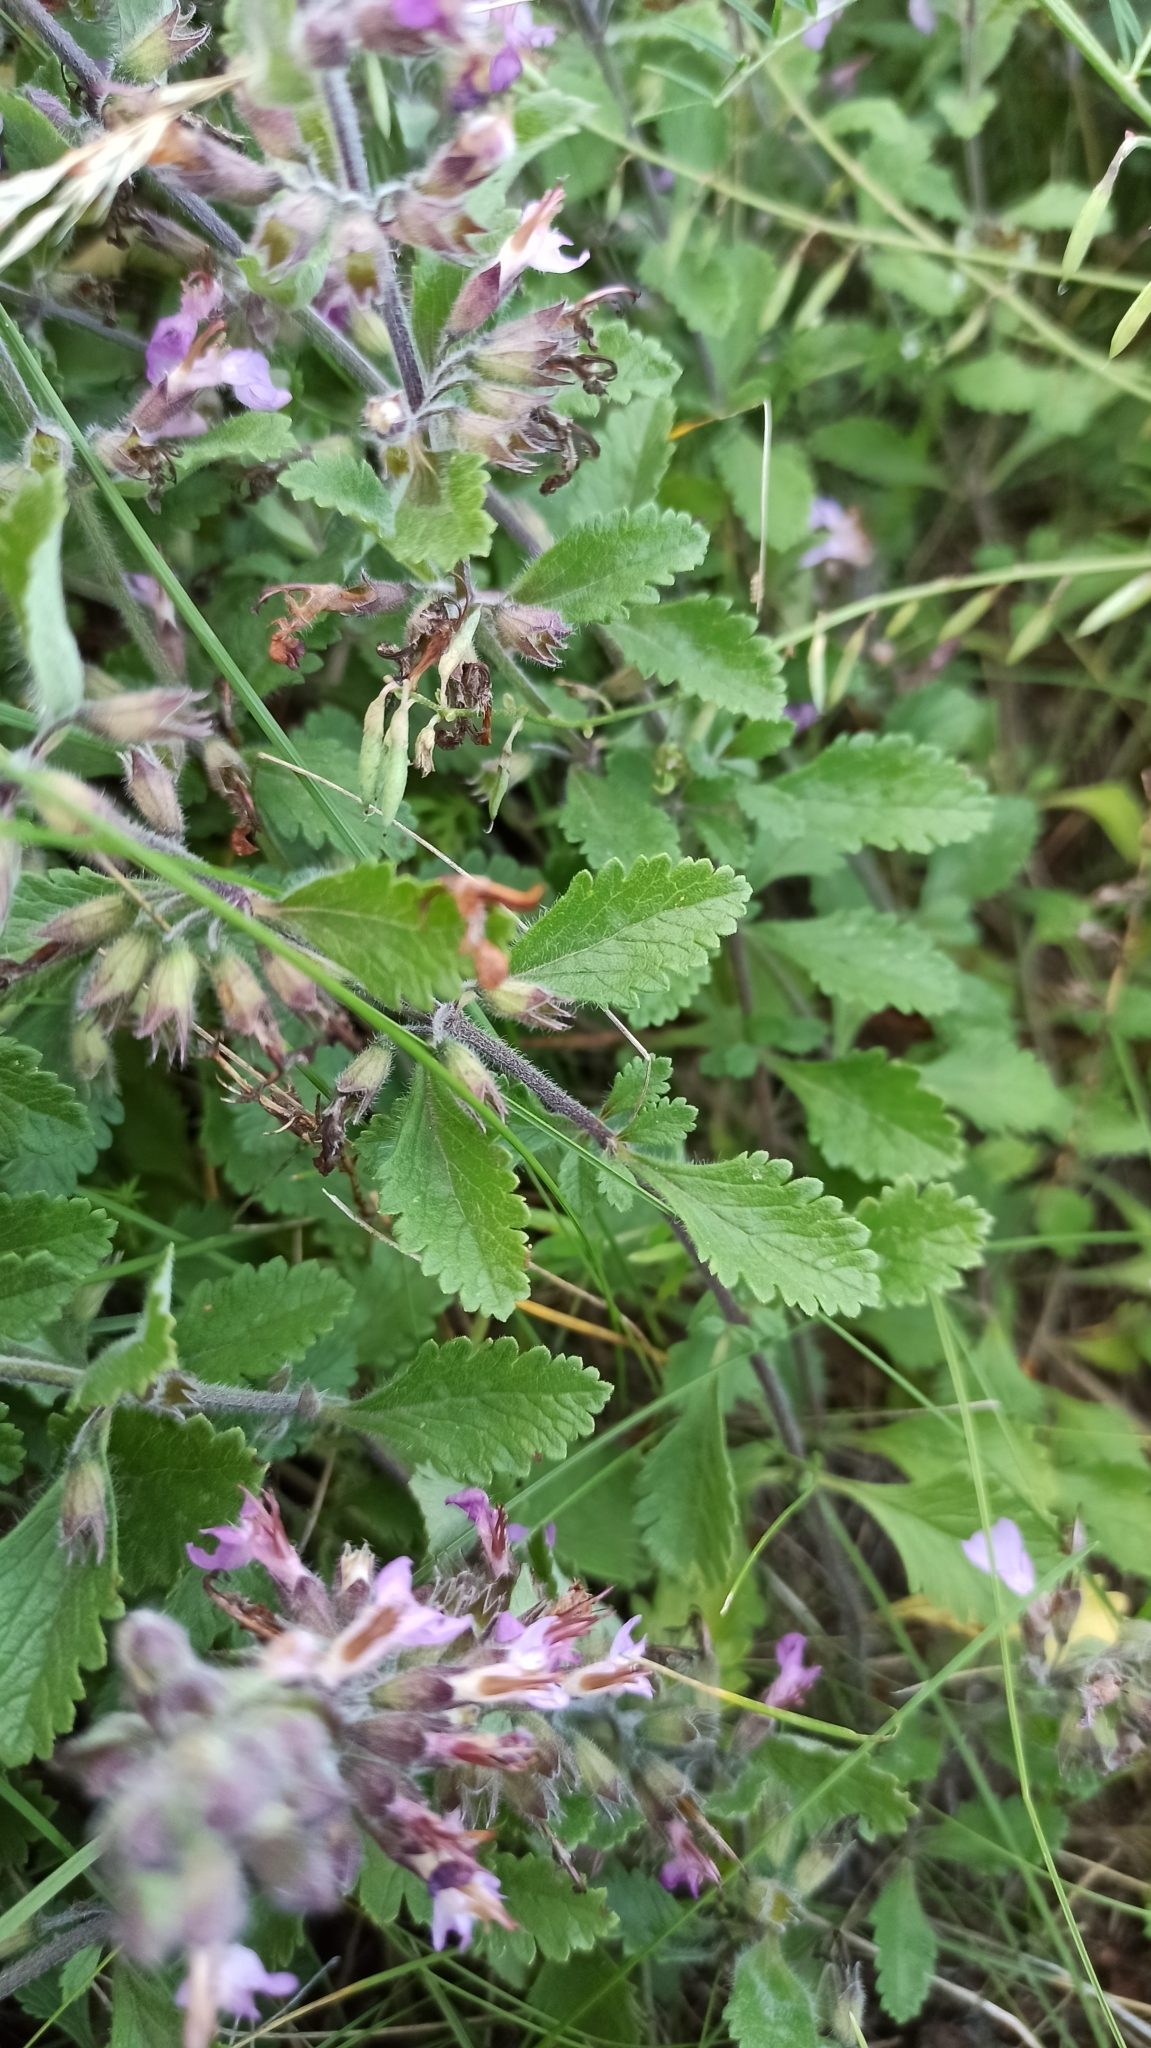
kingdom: Plantae
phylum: Tracheophyta
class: Magnoliopsida
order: Lamiales
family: Lamiaceae
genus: Teucrium
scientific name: Teucrium chamaedrys
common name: Wall germander
